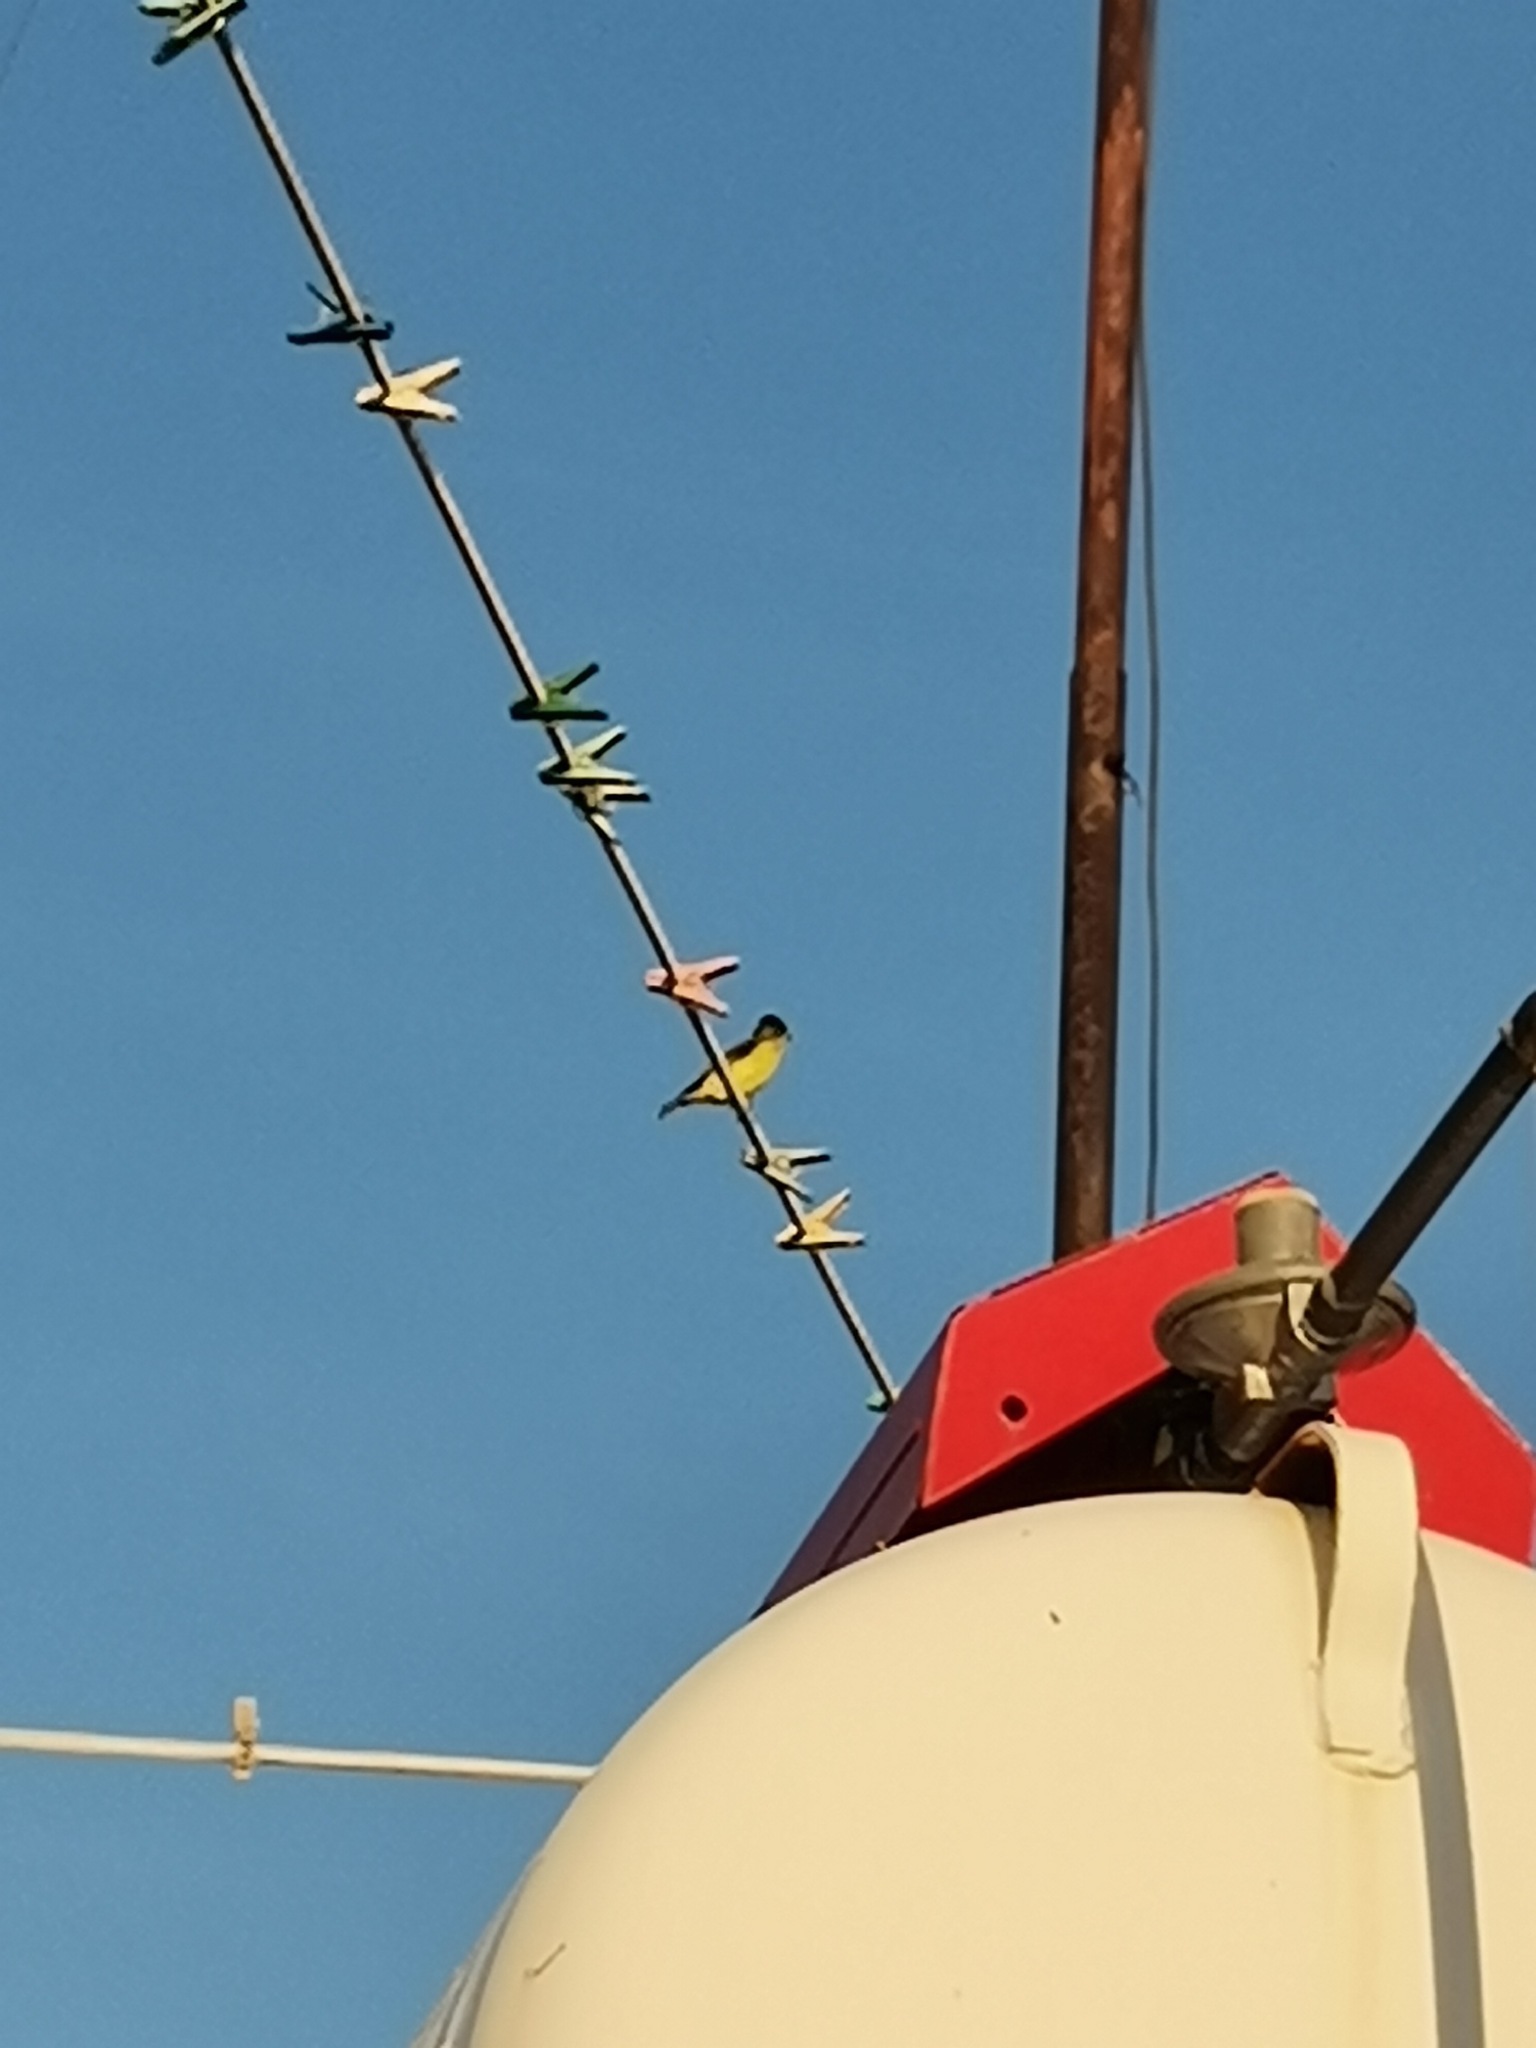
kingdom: Animalia
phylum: Chordata
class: Aves
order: Passeriformes
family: Fringillidae
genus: Spinus
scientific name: Spinus psaltria
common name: Lesser goldfinch
